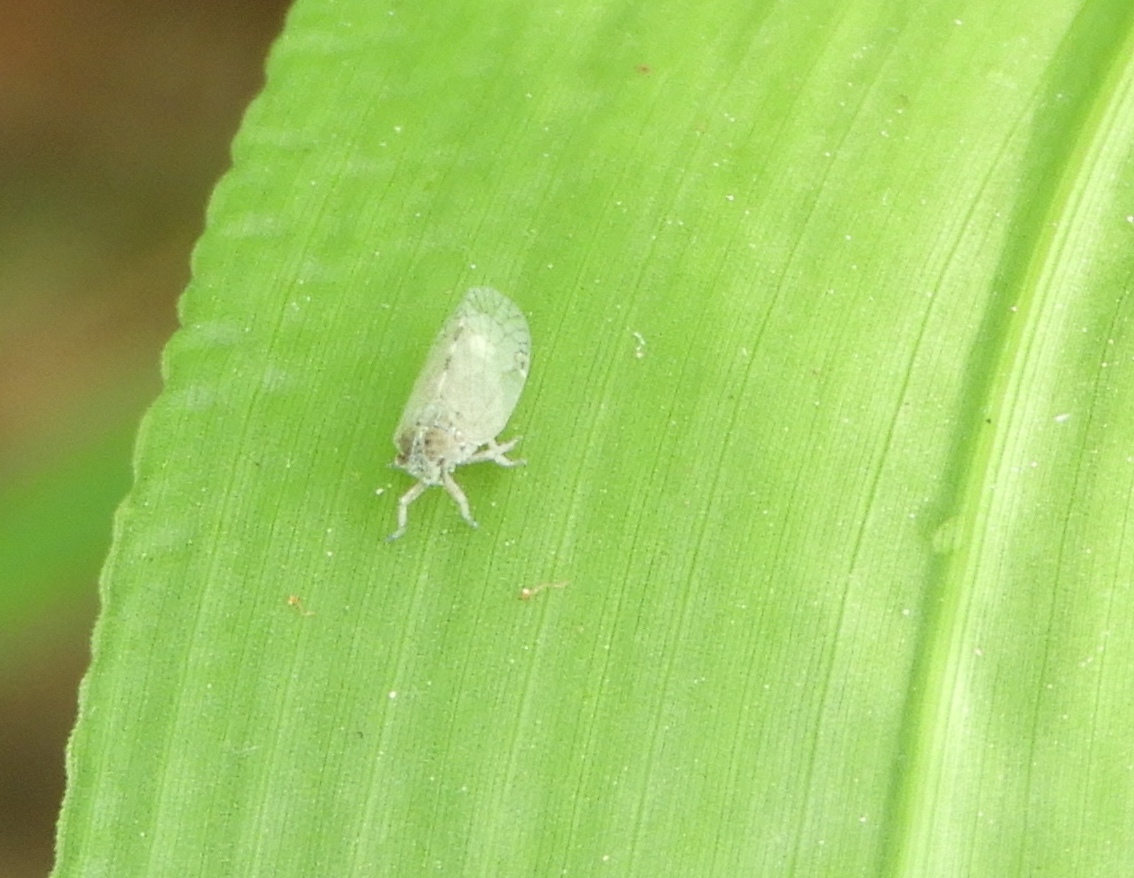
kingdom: Animalia
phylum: Arthropoda
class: Insecta
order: Hemiptera
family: Cixiidae
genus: Oecleus
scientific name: Oecleus
